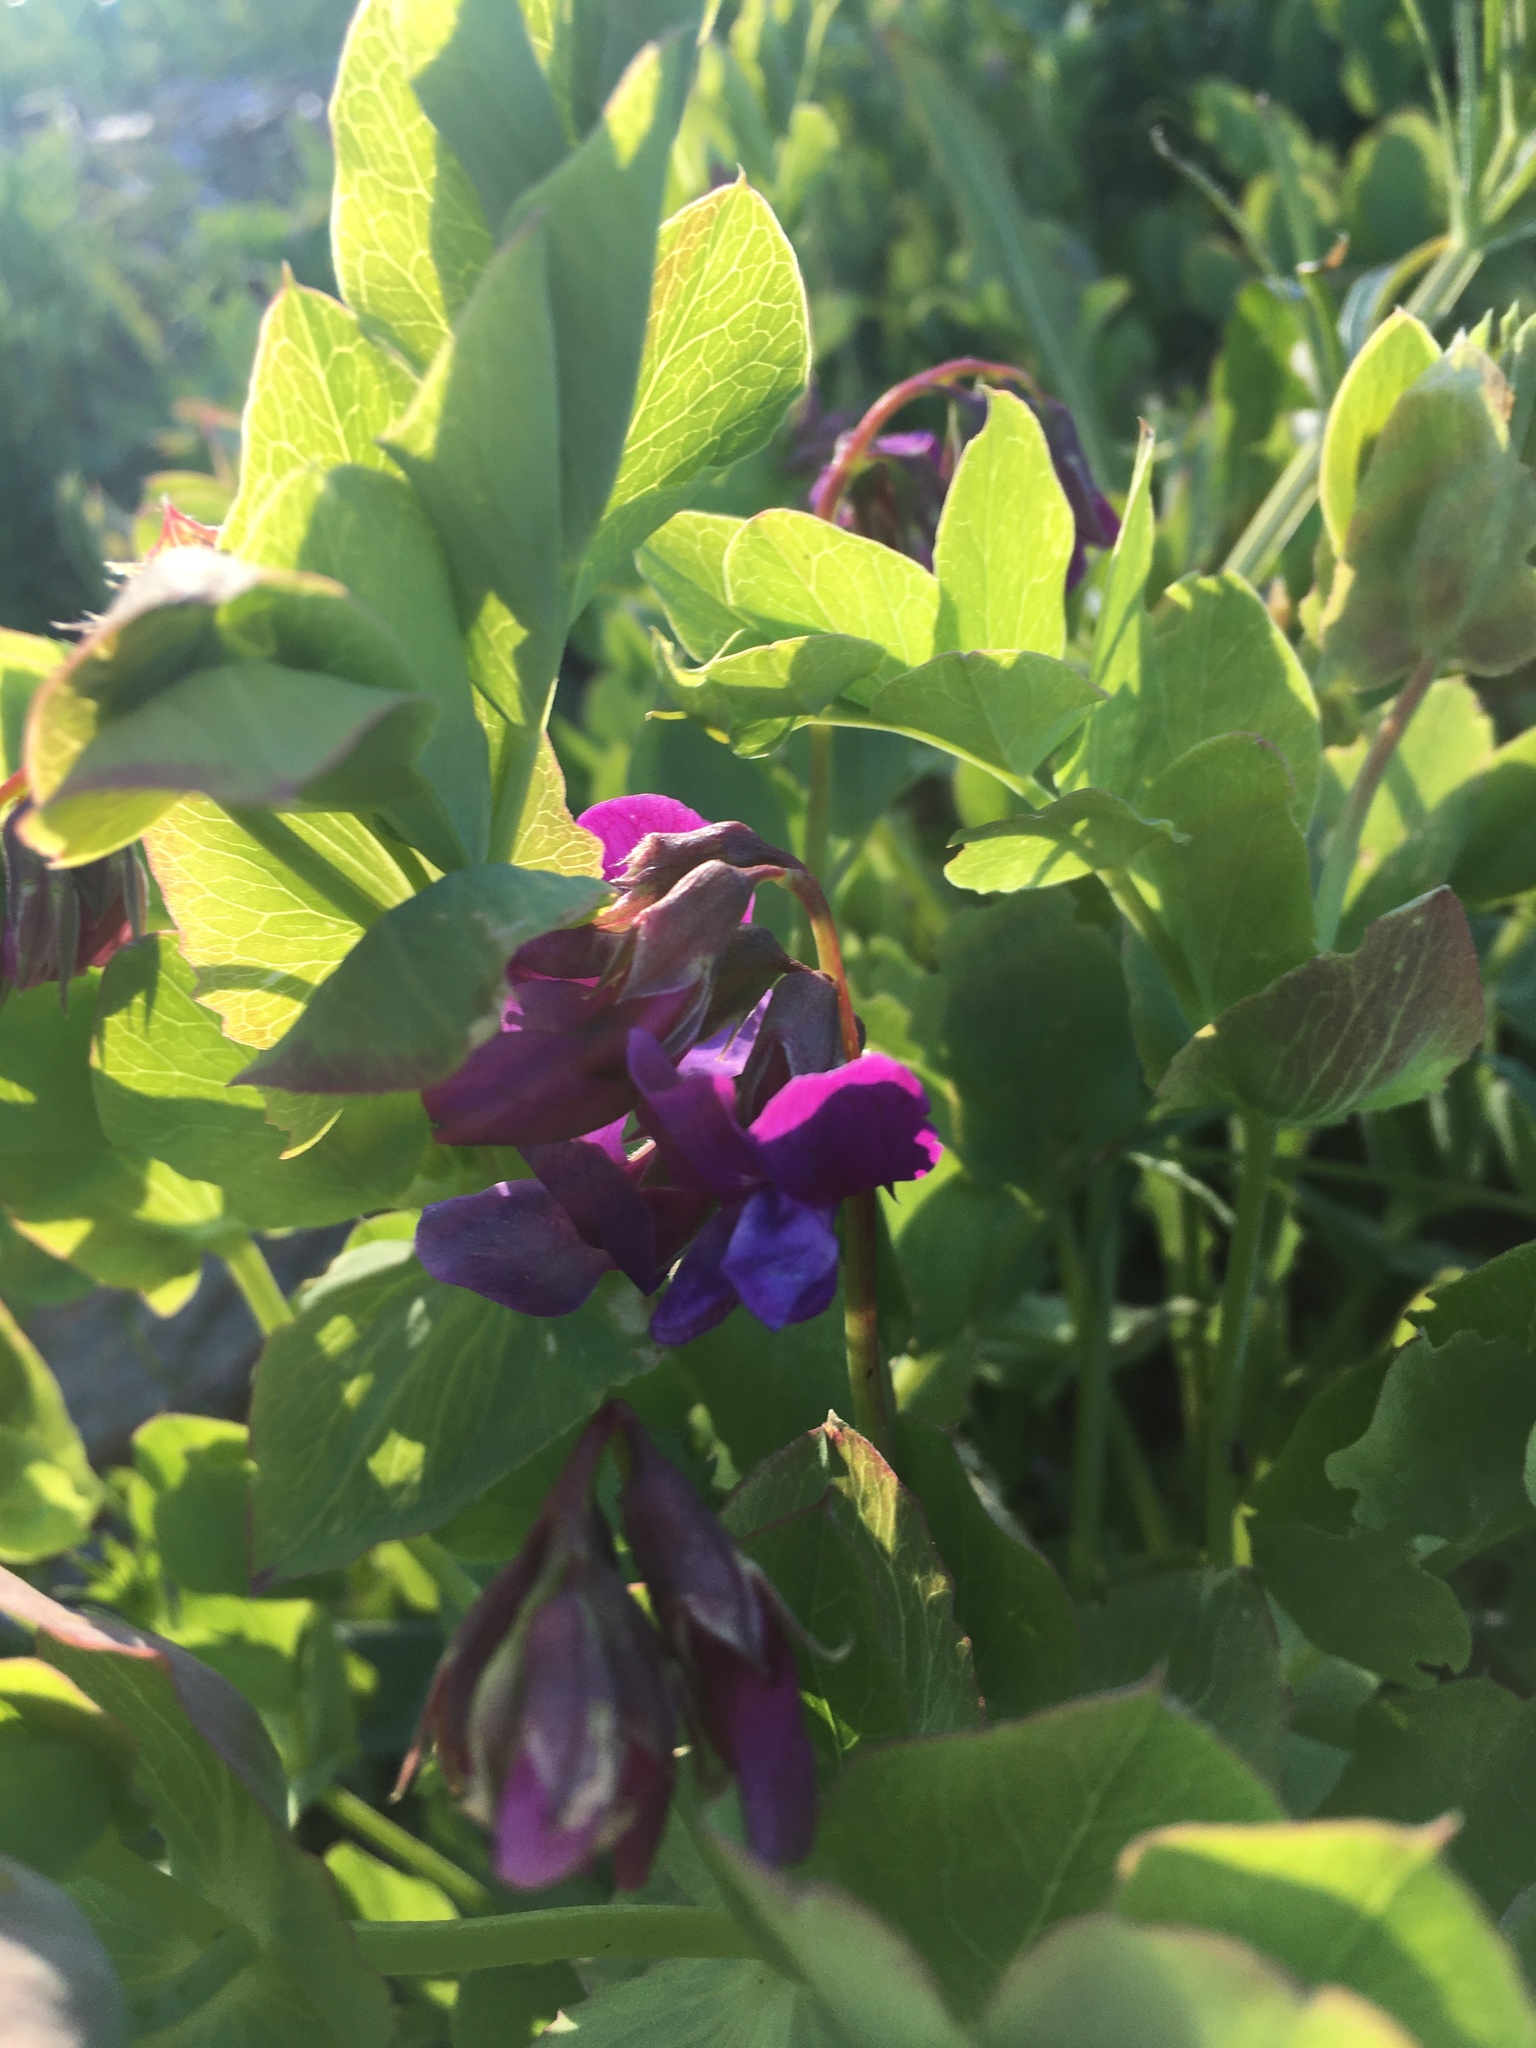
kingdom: Plantae
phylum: Tracheophyta
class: Magnoliopsida
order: Fabales
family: Fabaceae
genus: Lathyrus
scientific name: Lathyrus japonicus
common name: Sea pea
